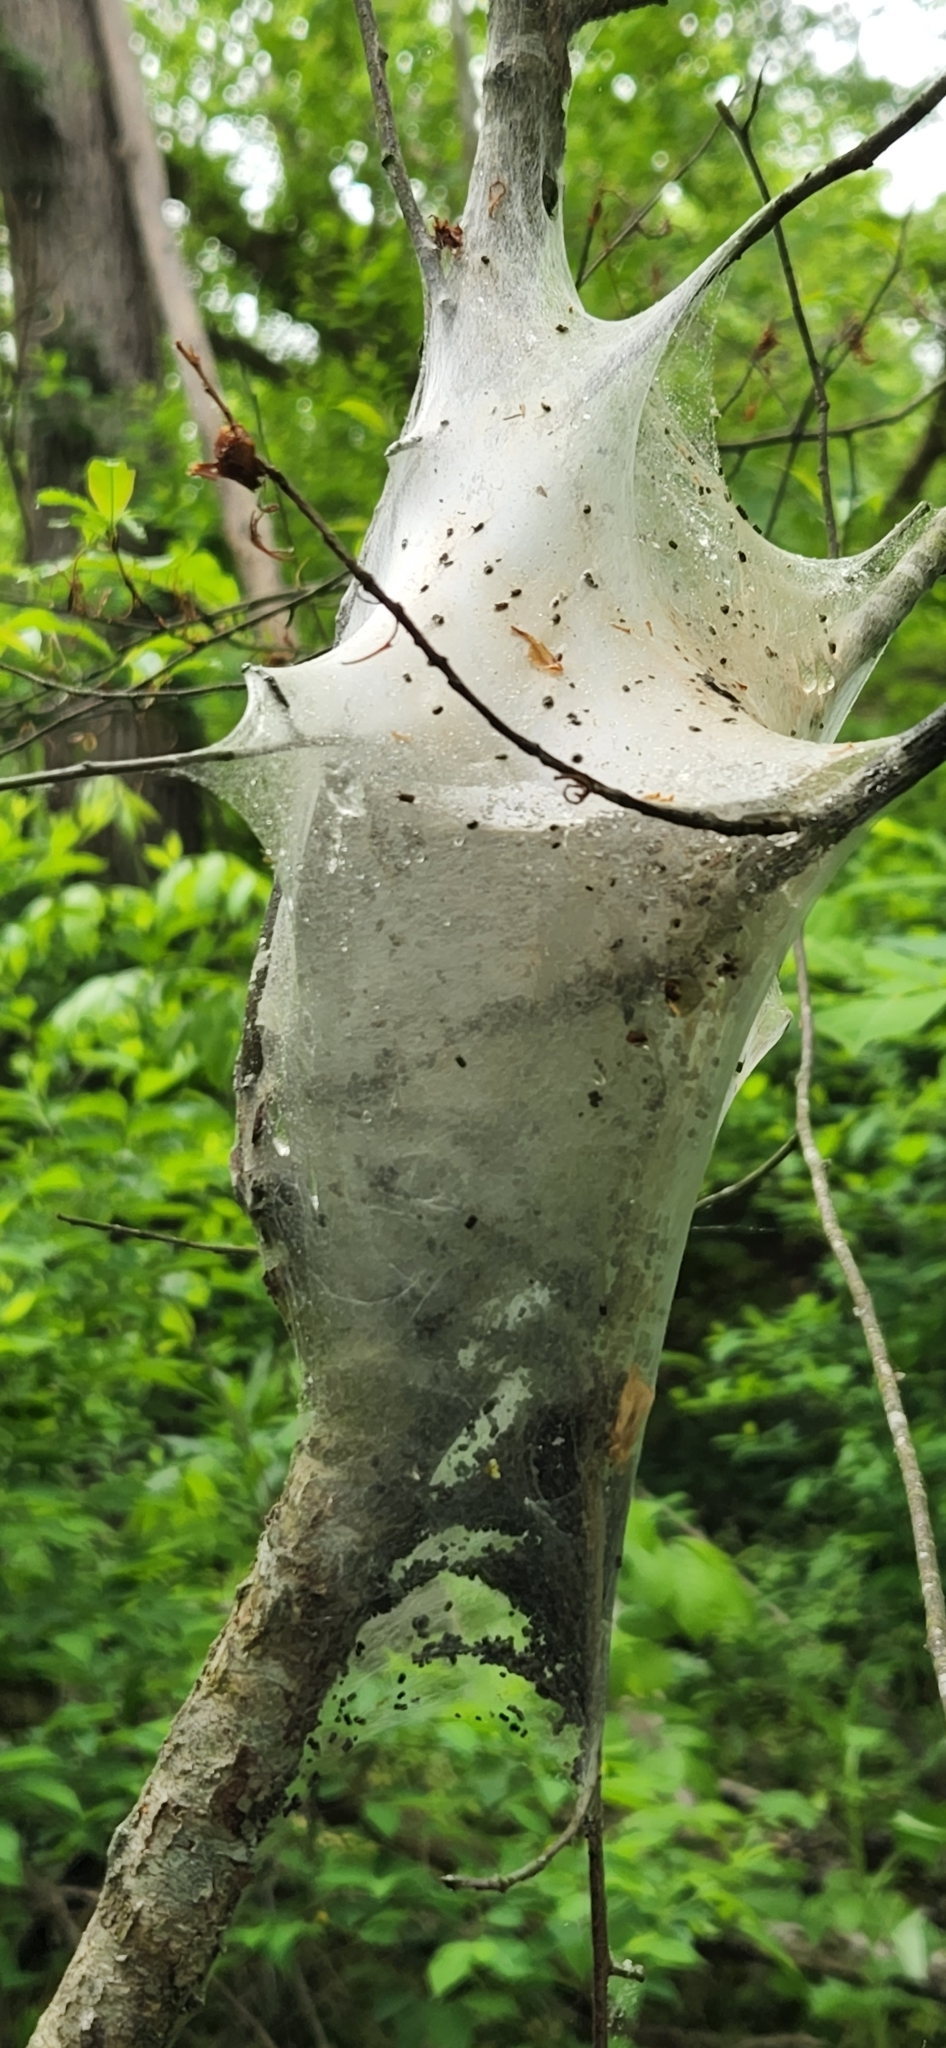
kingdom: Animalia
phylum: Arthropoda
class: Insecta
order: Lepidoptera
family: Lasiocampidae
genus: Malacosoma
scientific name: Malacosoma americana
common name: Eastern tent caterpillar moth
